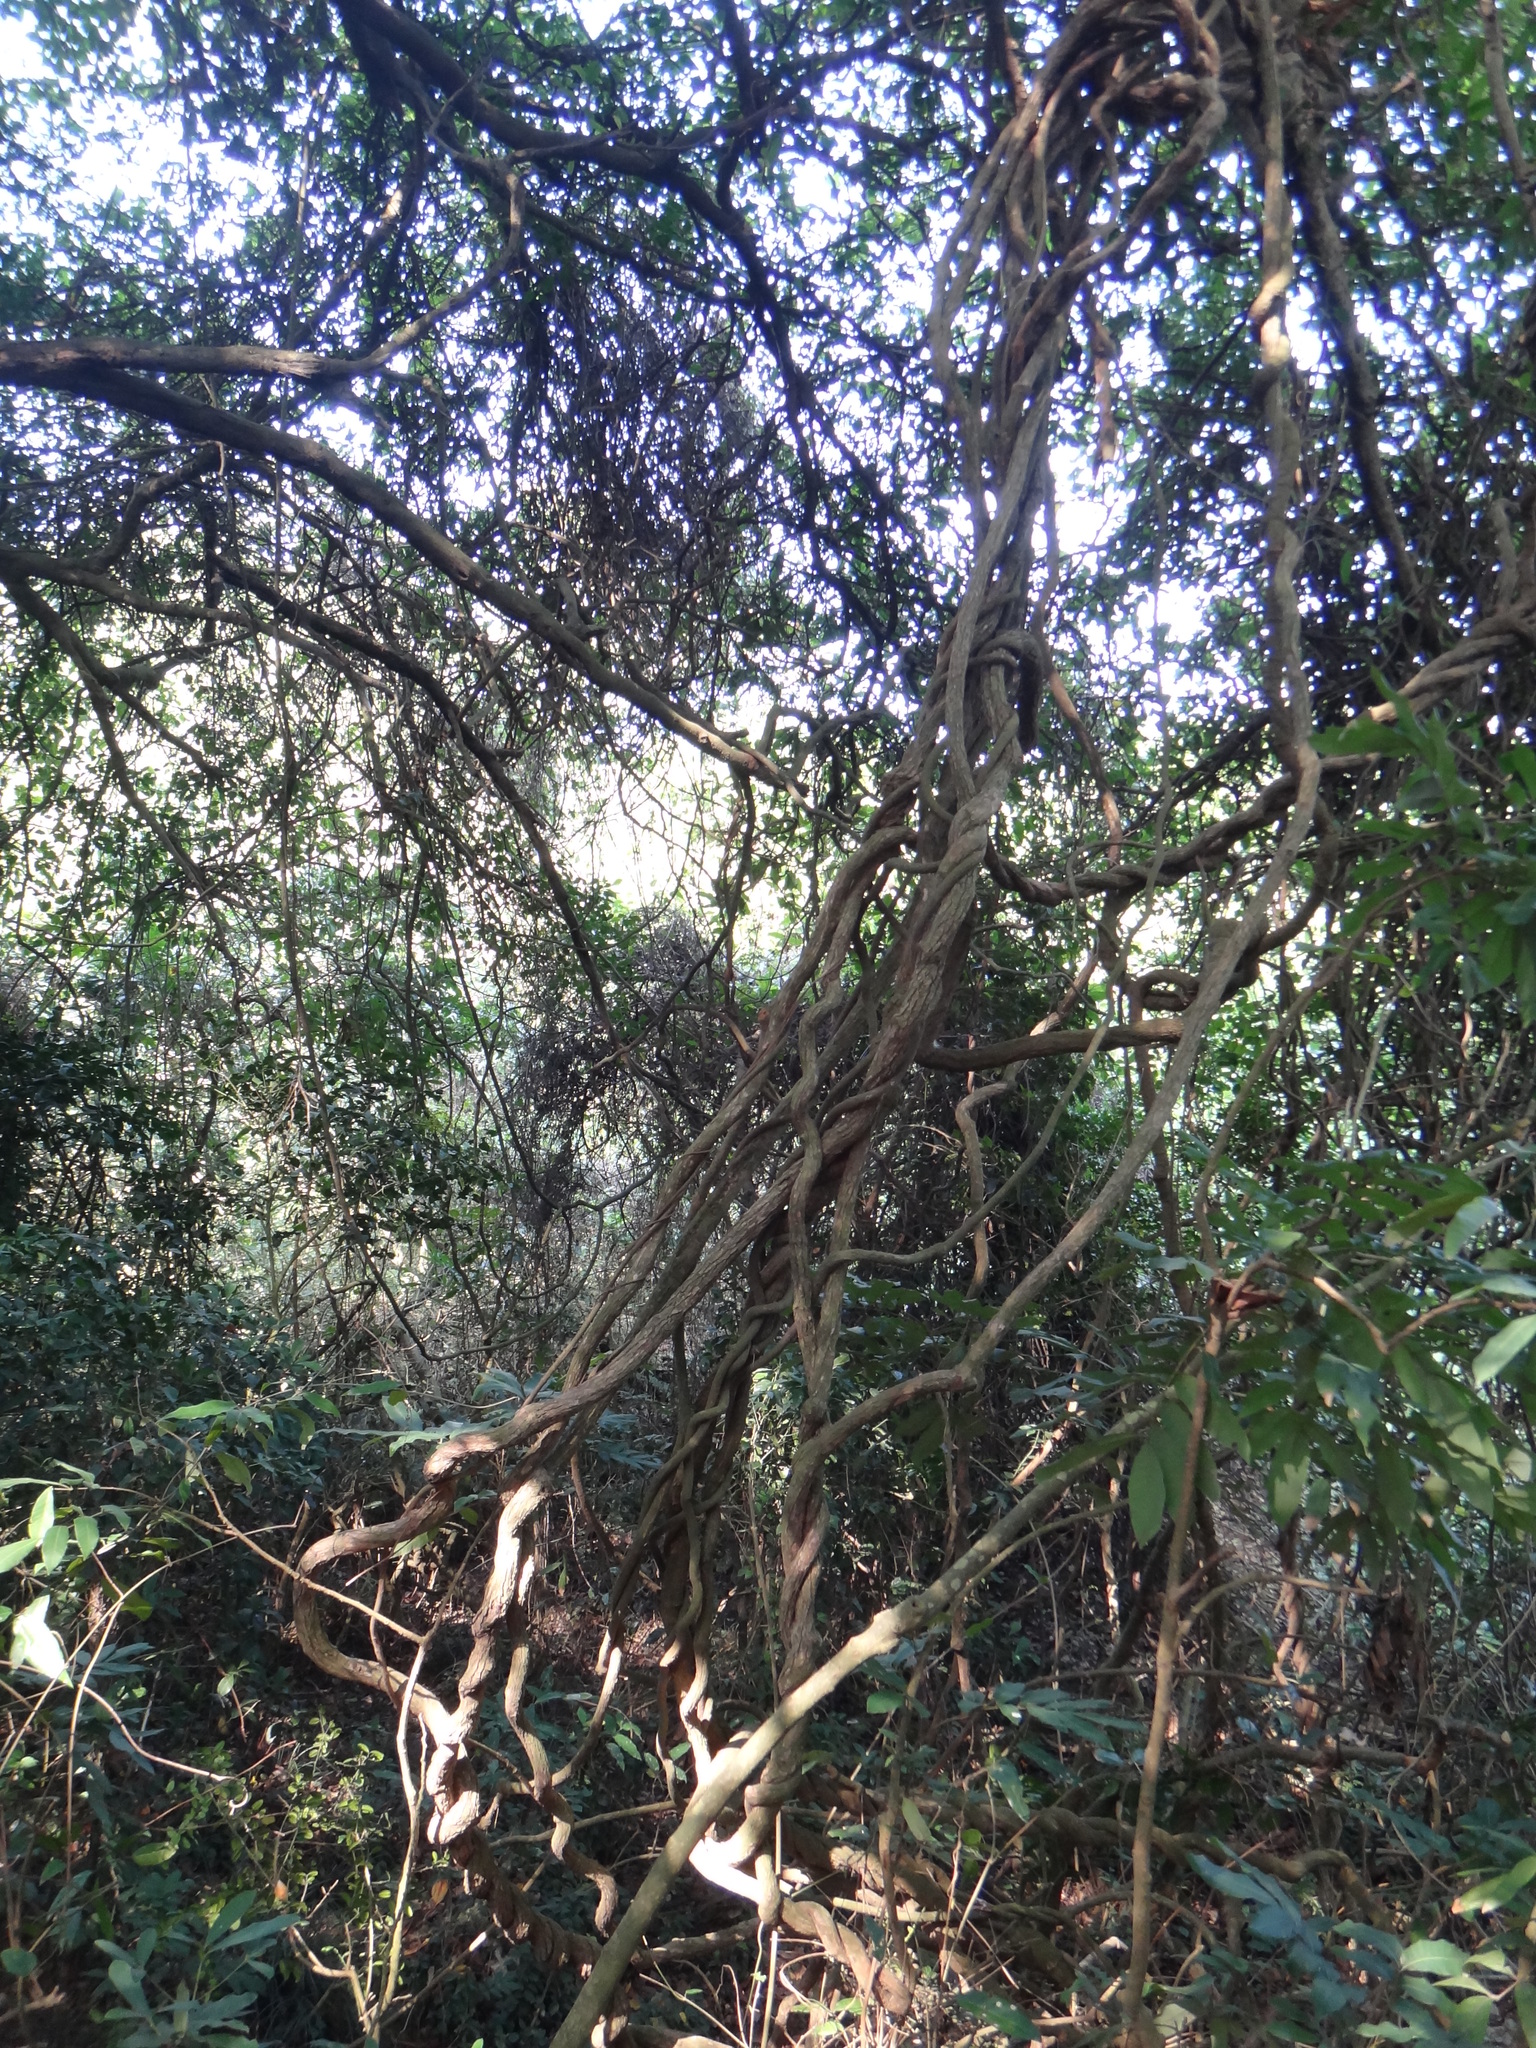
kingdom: Plantae
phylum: Tracheophyta
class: Magnoliopsida
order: Malpighiales
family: Malpighiaceae
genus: Hiptage
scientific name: Hiptage benghalensis
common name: Hiptage
